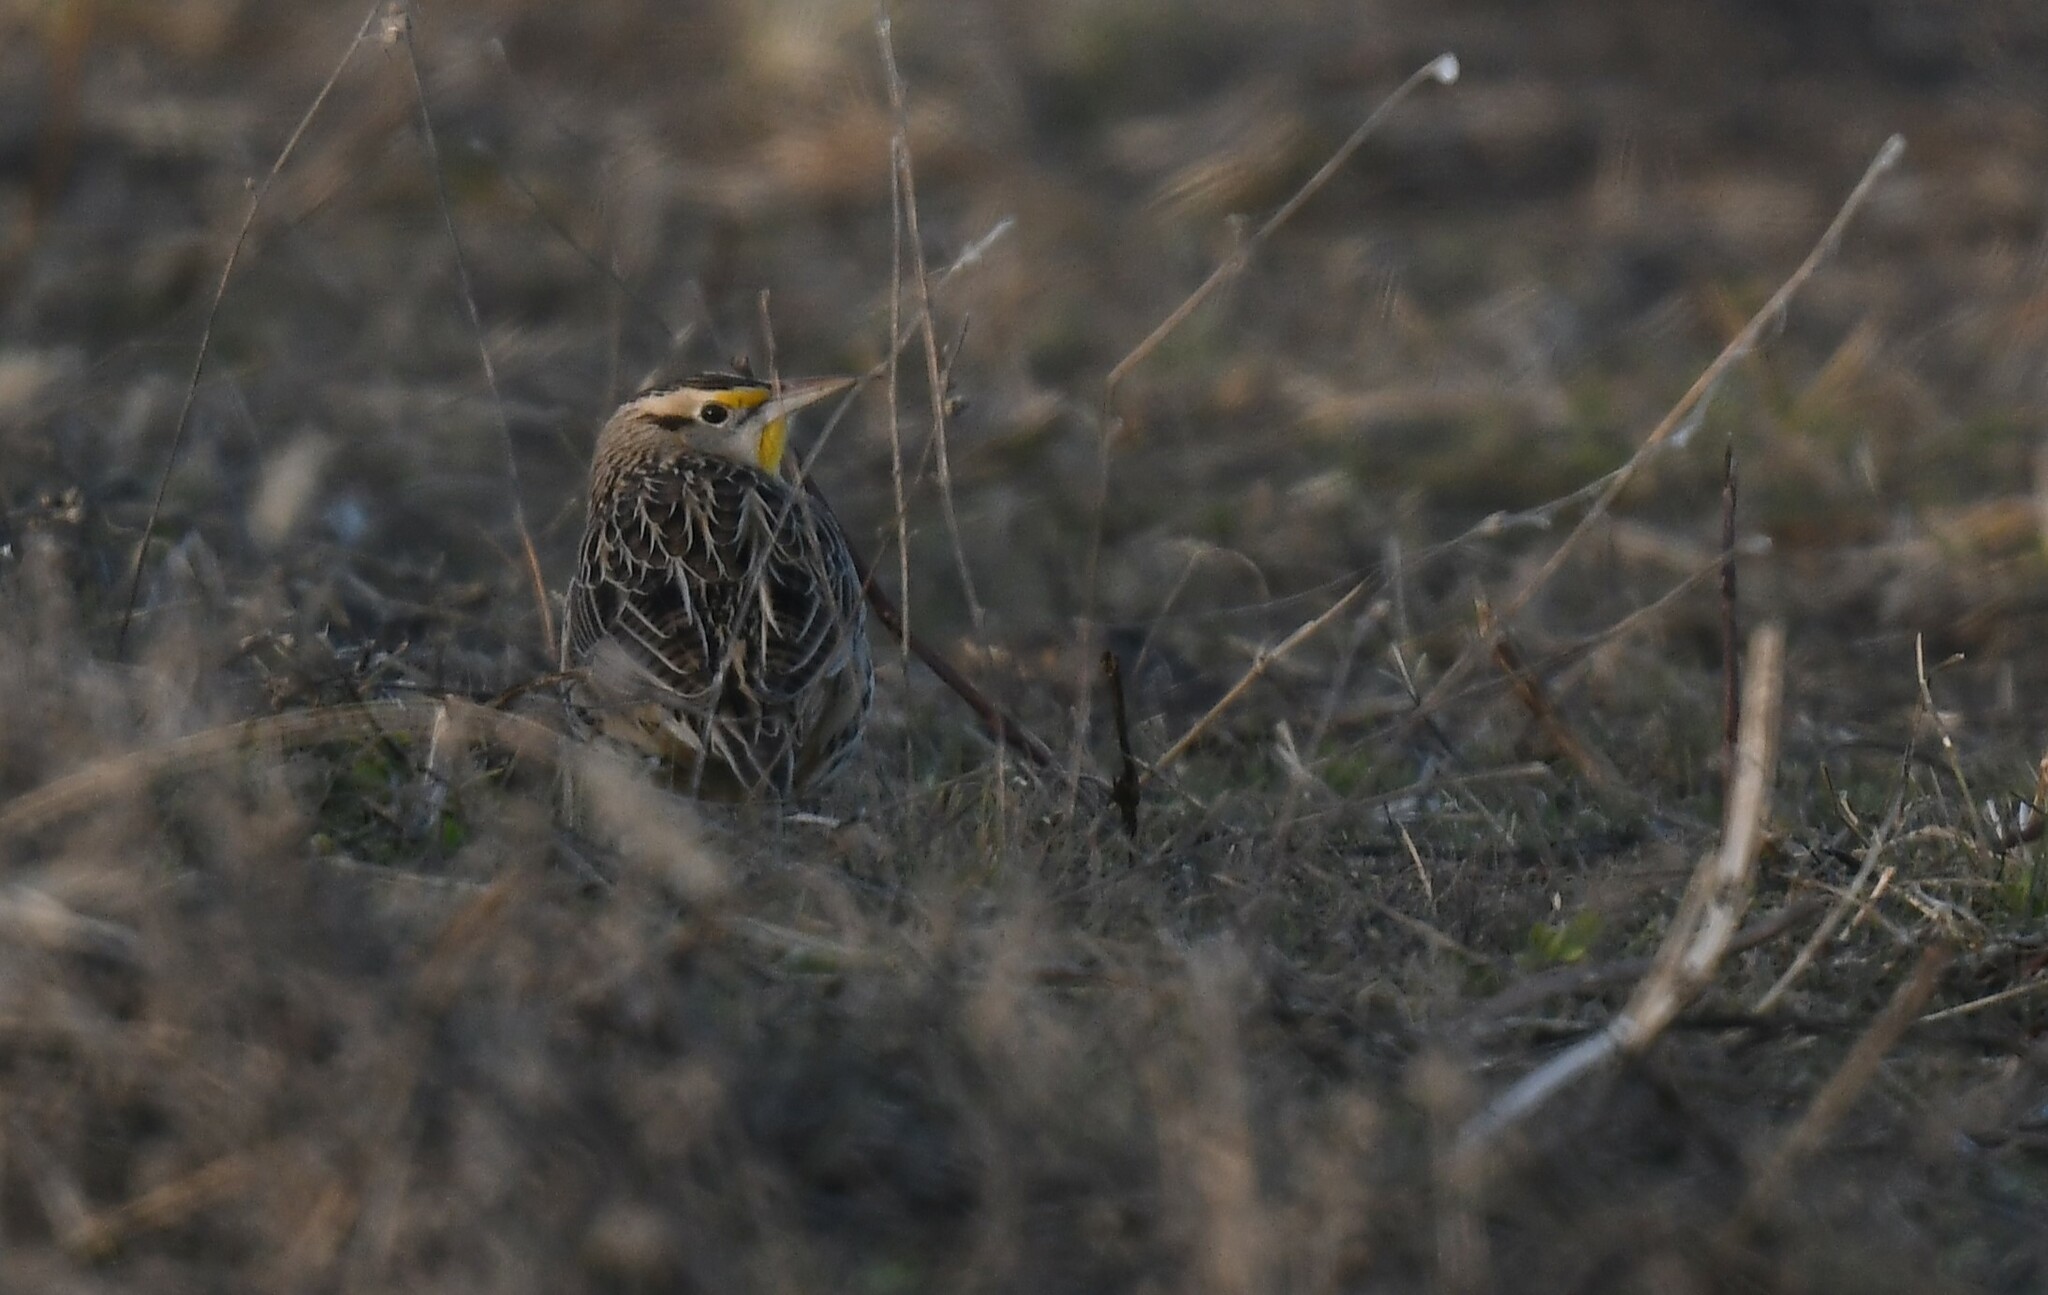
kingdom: Animalia
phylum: Chordata
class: Aves
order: Passeriformes
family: Icteridae
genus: Sturnella
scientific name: Sturnella magna
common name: Eastern meadowlark
